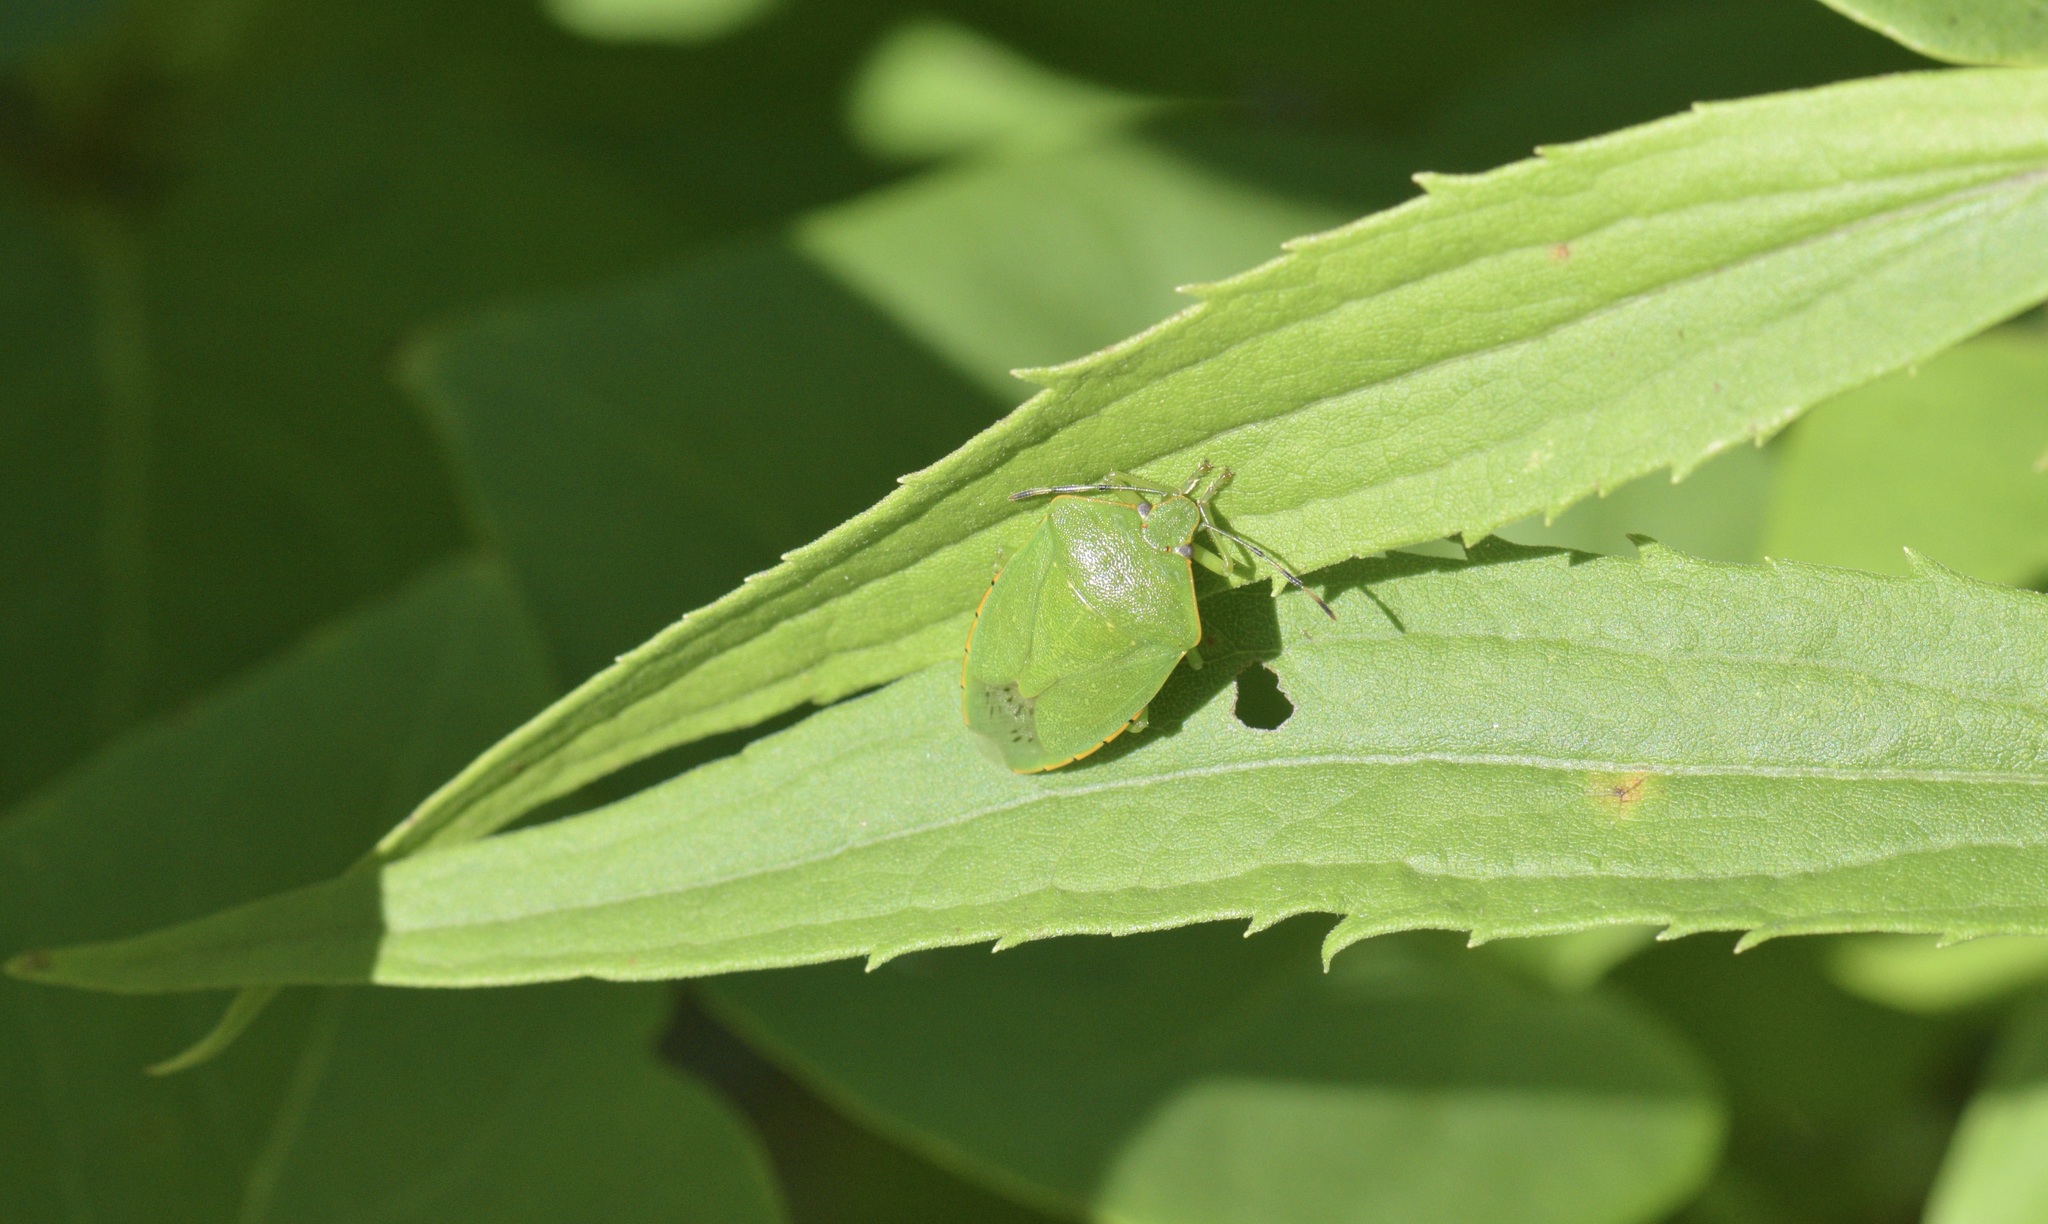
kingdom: Animalia
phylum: Arthropoda
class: Insecta
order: Hemiptera
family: Pentatomidae
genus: Chinavia
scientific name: Chinavia hilaris
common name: Green stink bug
